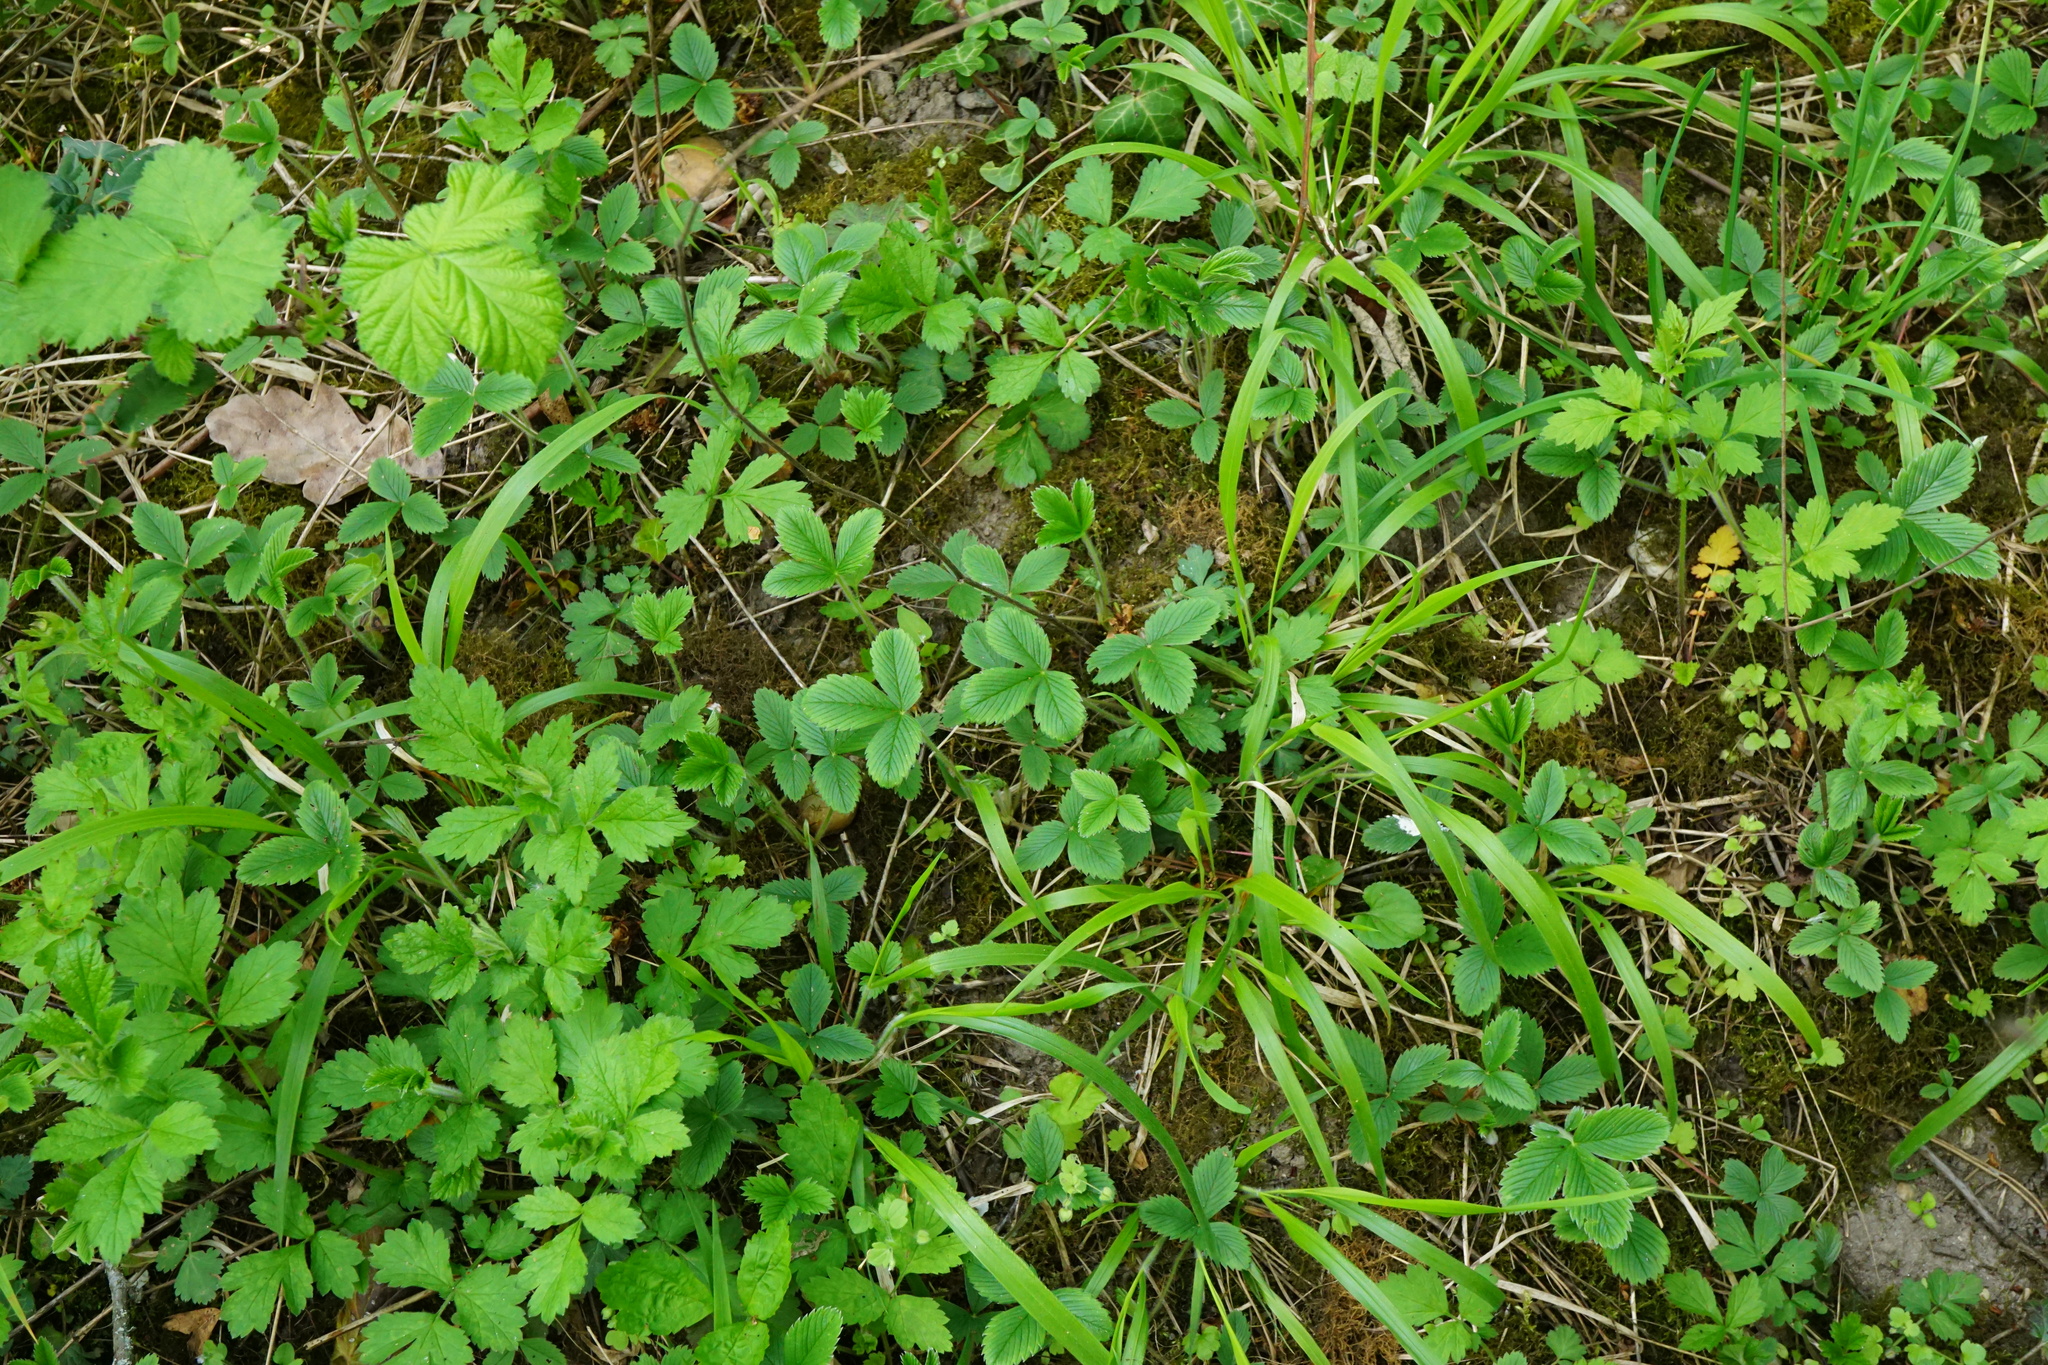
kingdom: Plantae
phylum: Tracheophyta
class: Magnoliopsida
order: Rosales
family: Rosaceae
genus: Fragaria
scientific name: Fragaria viridis
